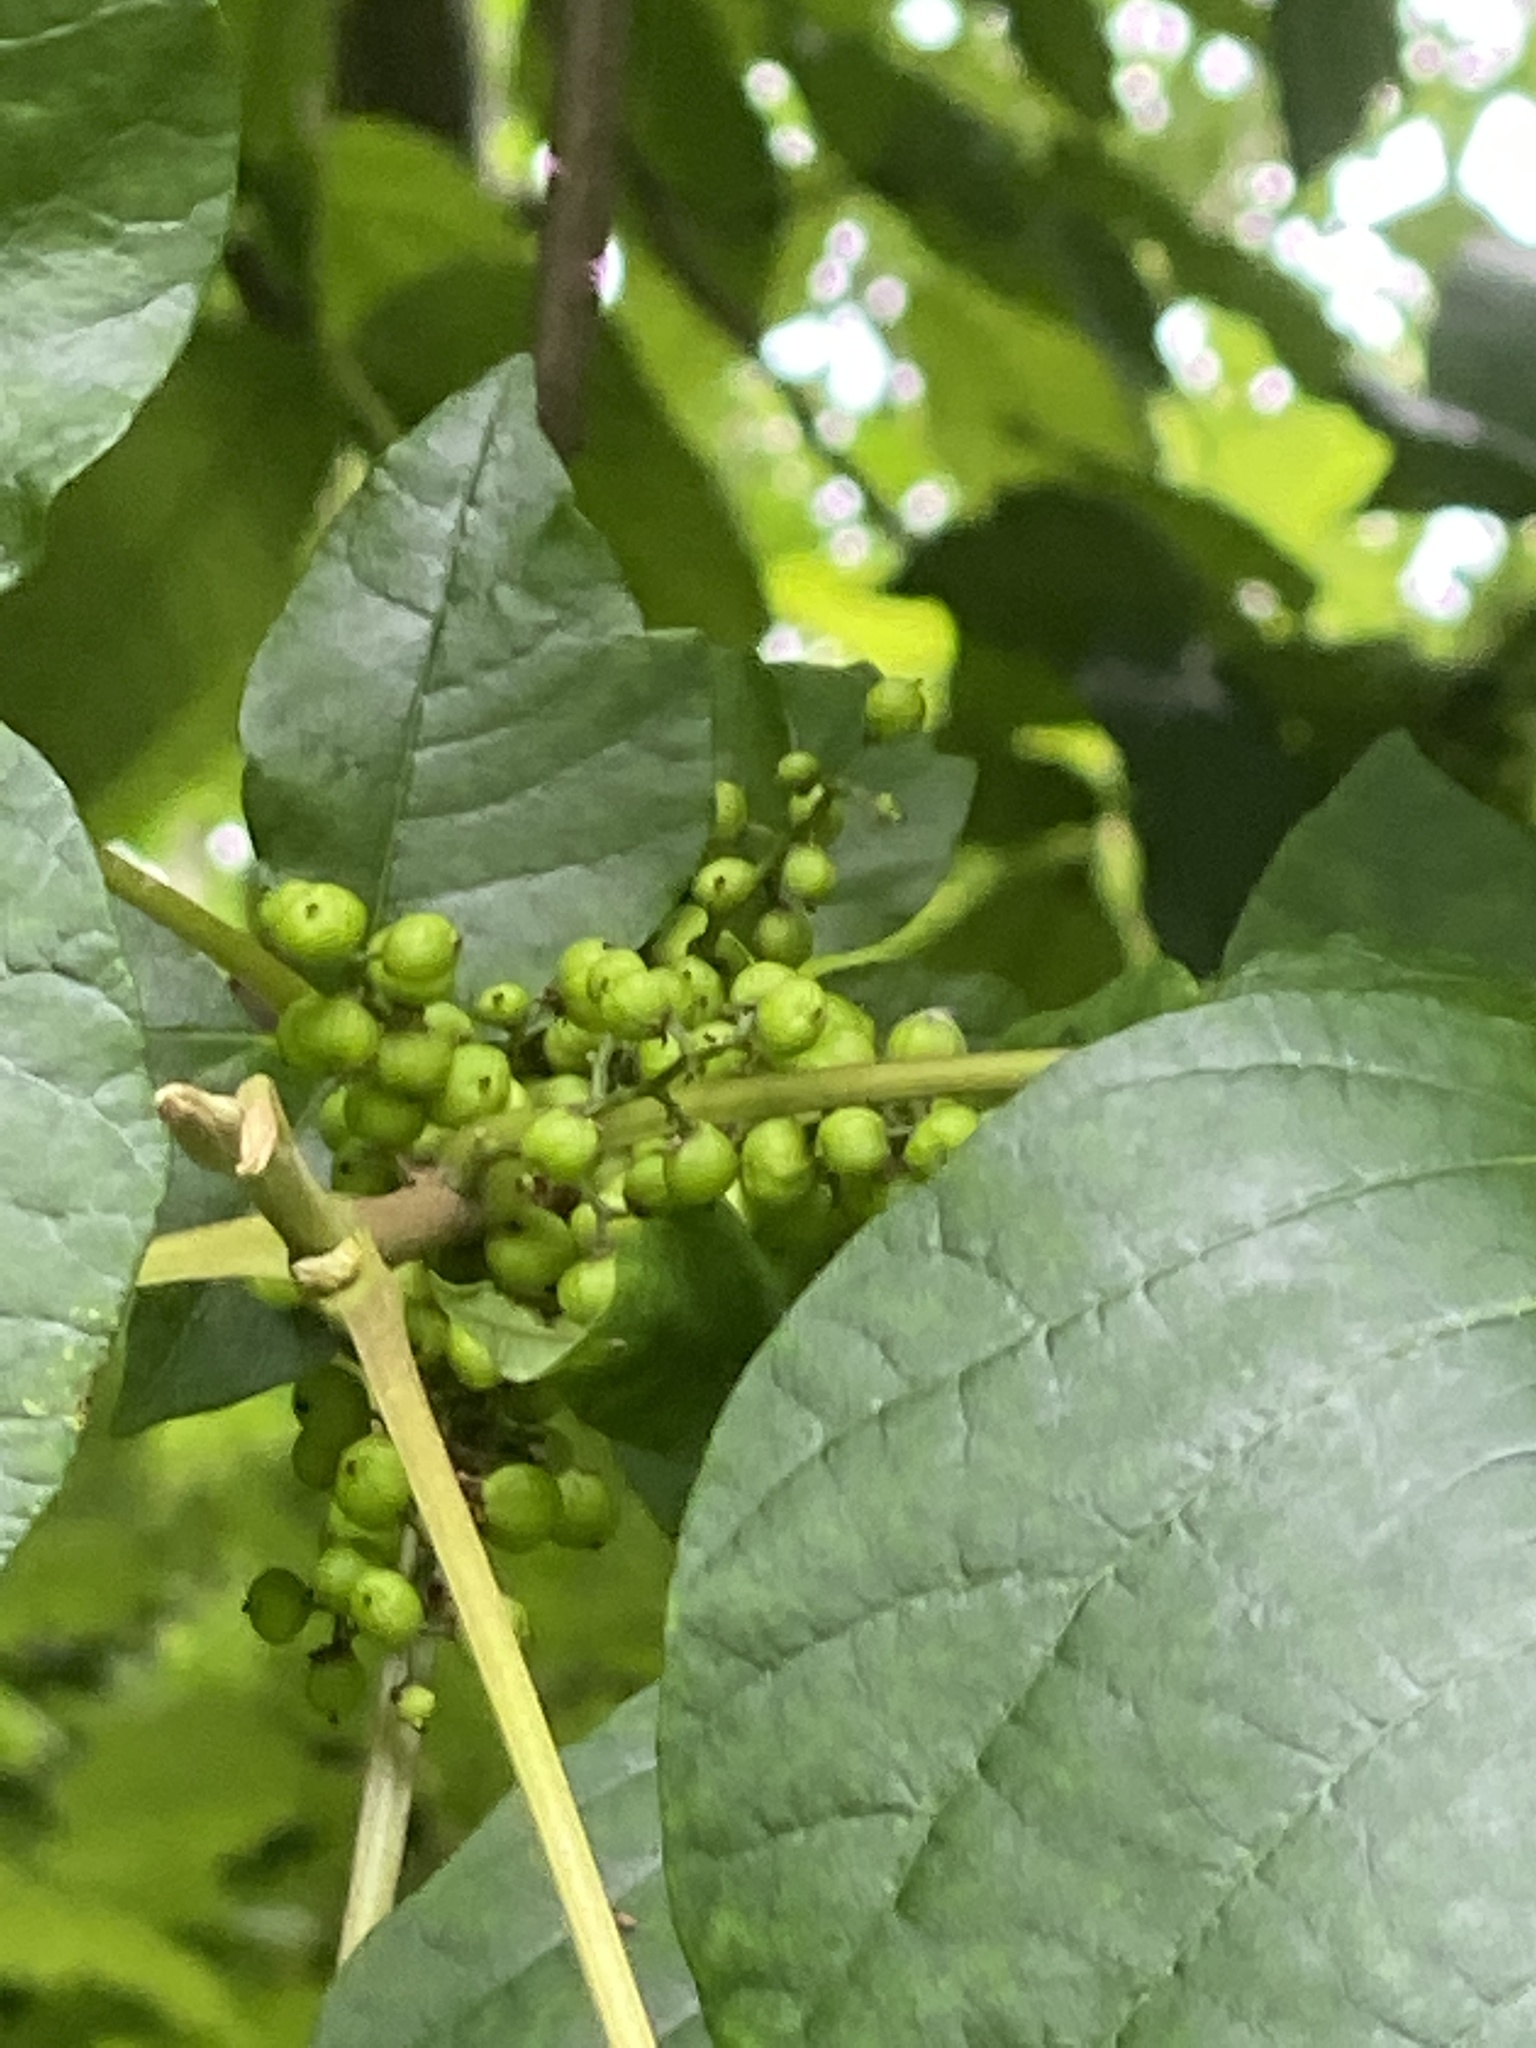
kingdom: Plantae
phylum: Tracheophyta
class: Magnoliopsida
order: Sapindales
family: Anacardiaceae
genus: Toxicodendron
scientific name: Toxicodendron radicans
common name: Poison ivy
